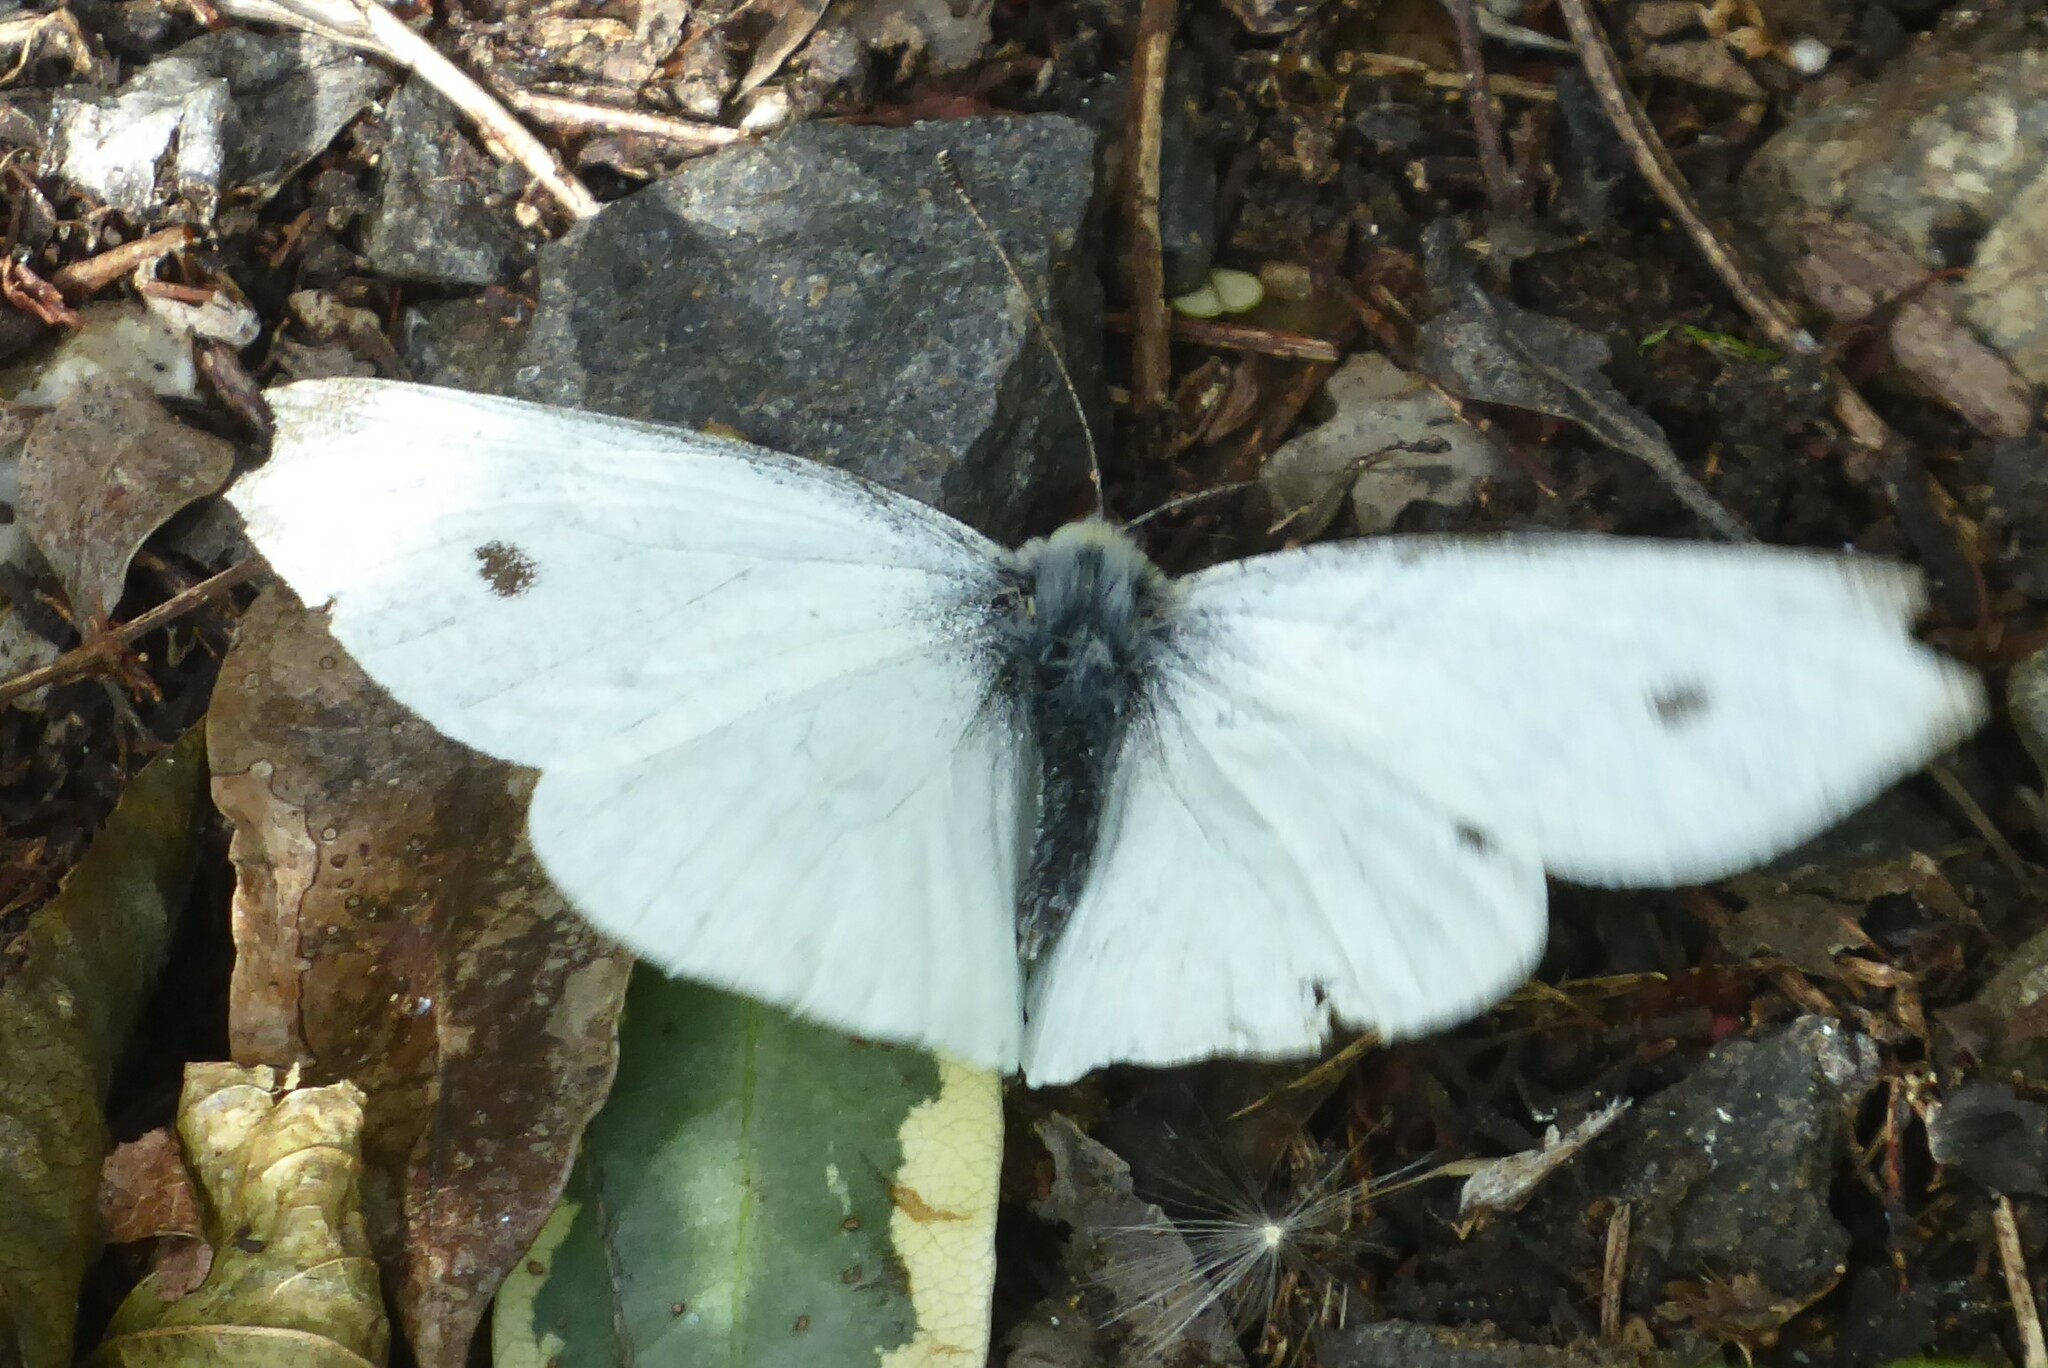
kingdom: Animalia
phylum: Arthropoda
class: Insecta
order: Lepidoptera
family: Pieridae
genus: Pieris
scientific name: Pieris rapae
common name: Small white
